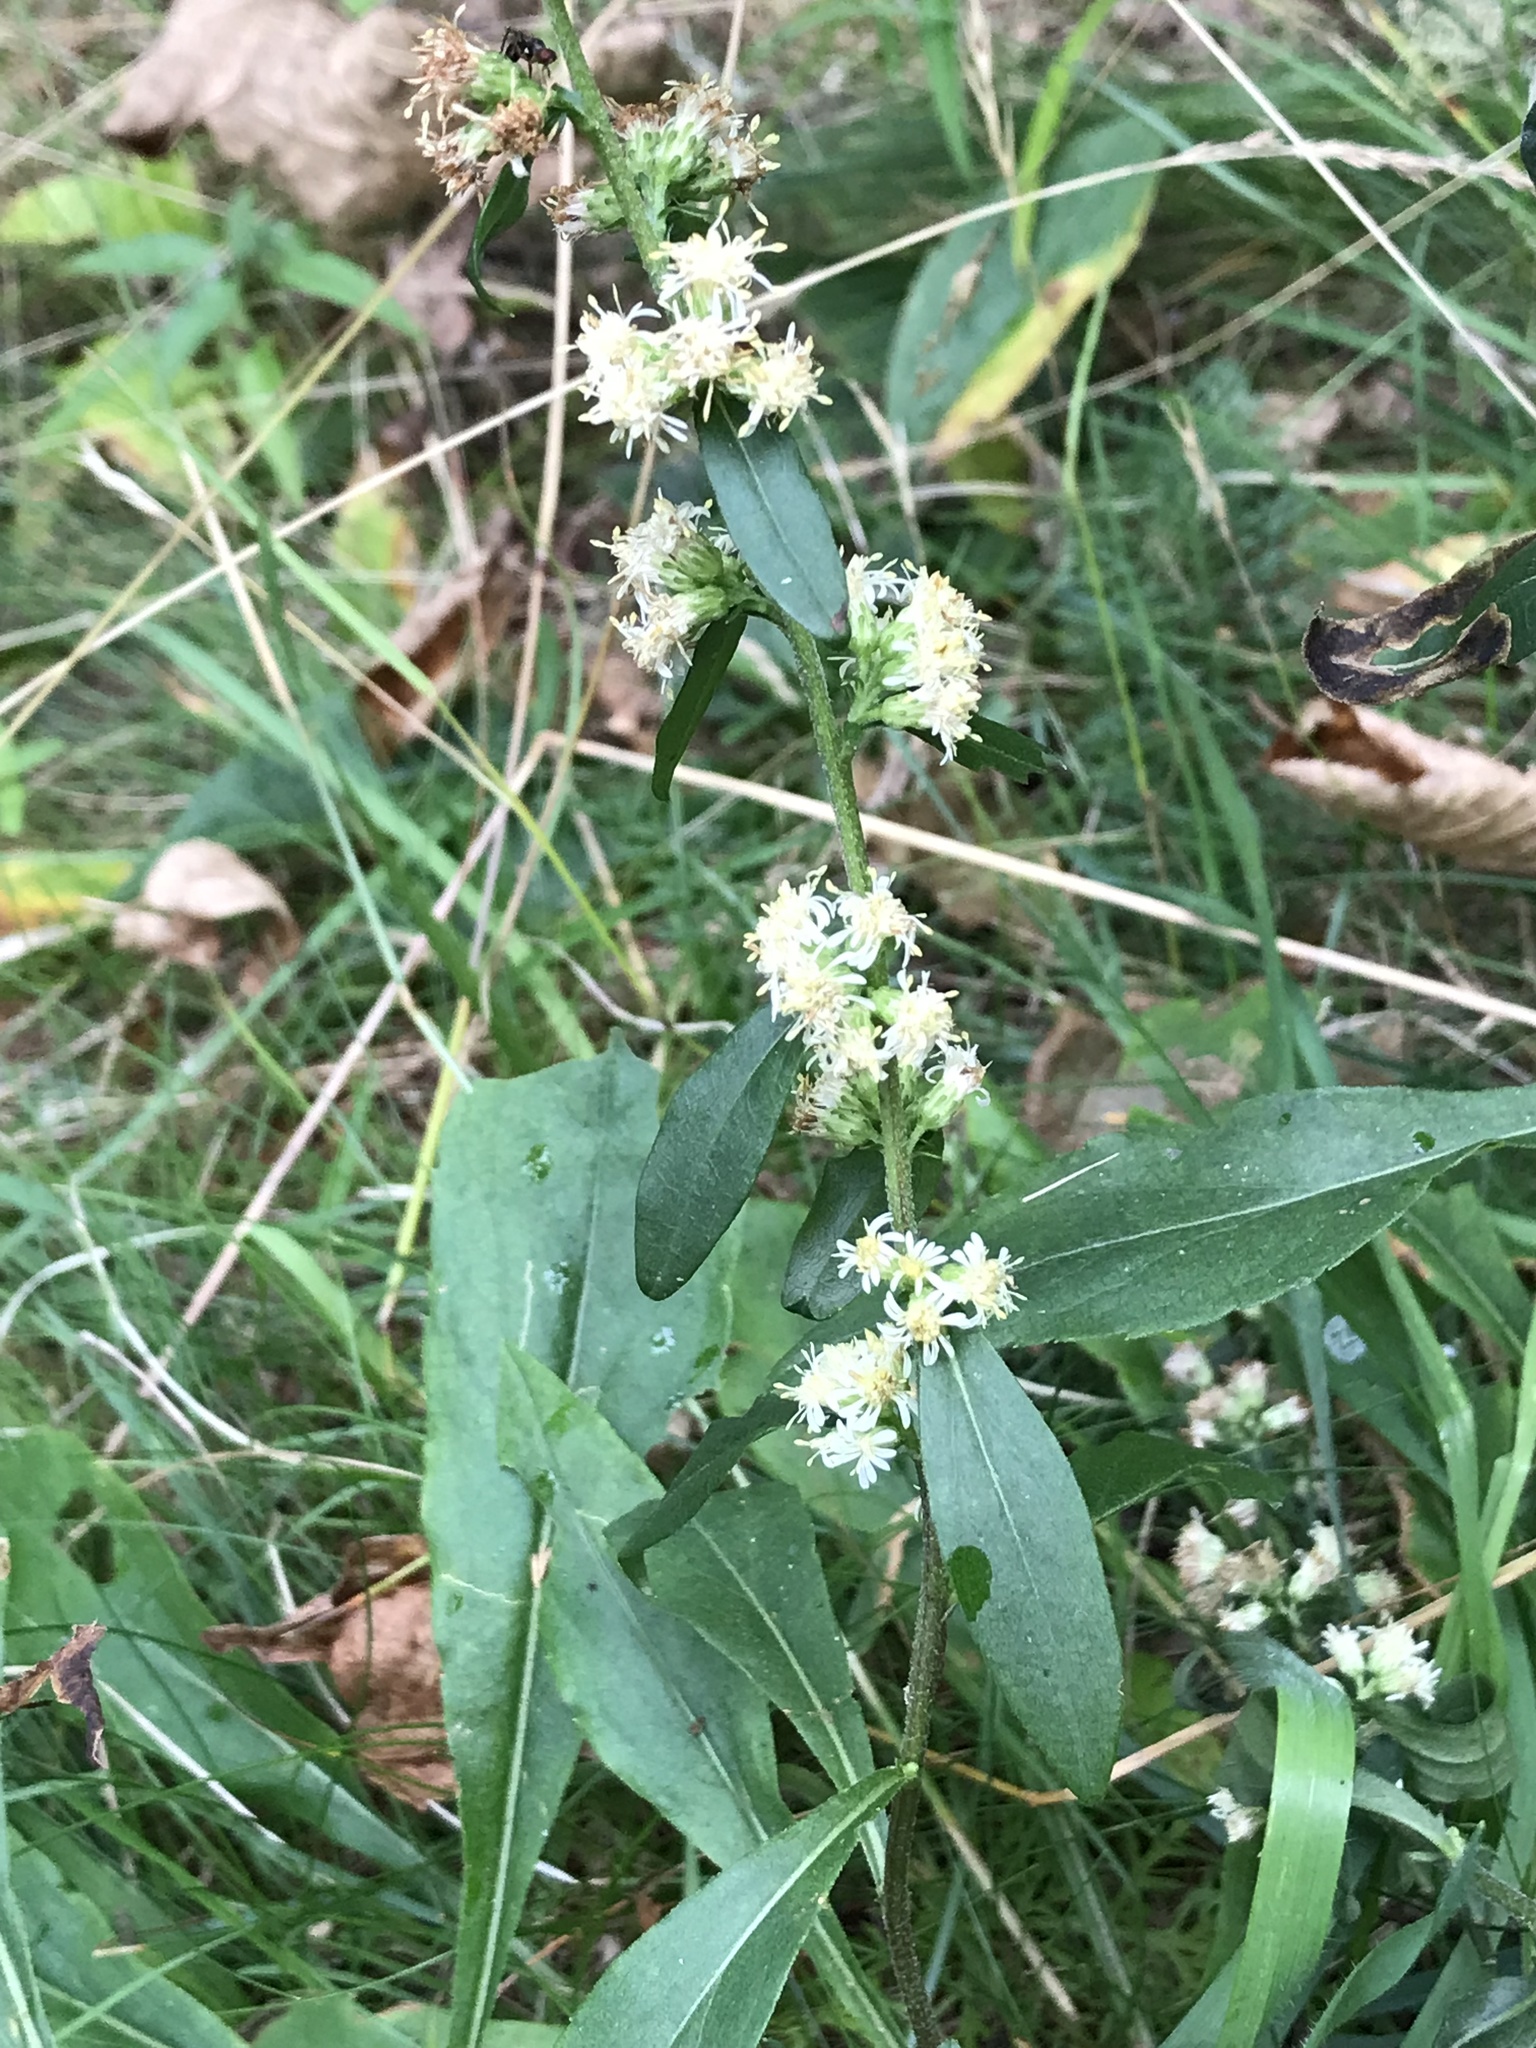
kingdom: Plantae
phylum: Tracheophyta
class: Magnoliopsida
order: Asterales
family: Asteraceae
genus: Solidago
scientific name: Solidago bicolor
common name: Silverrod
